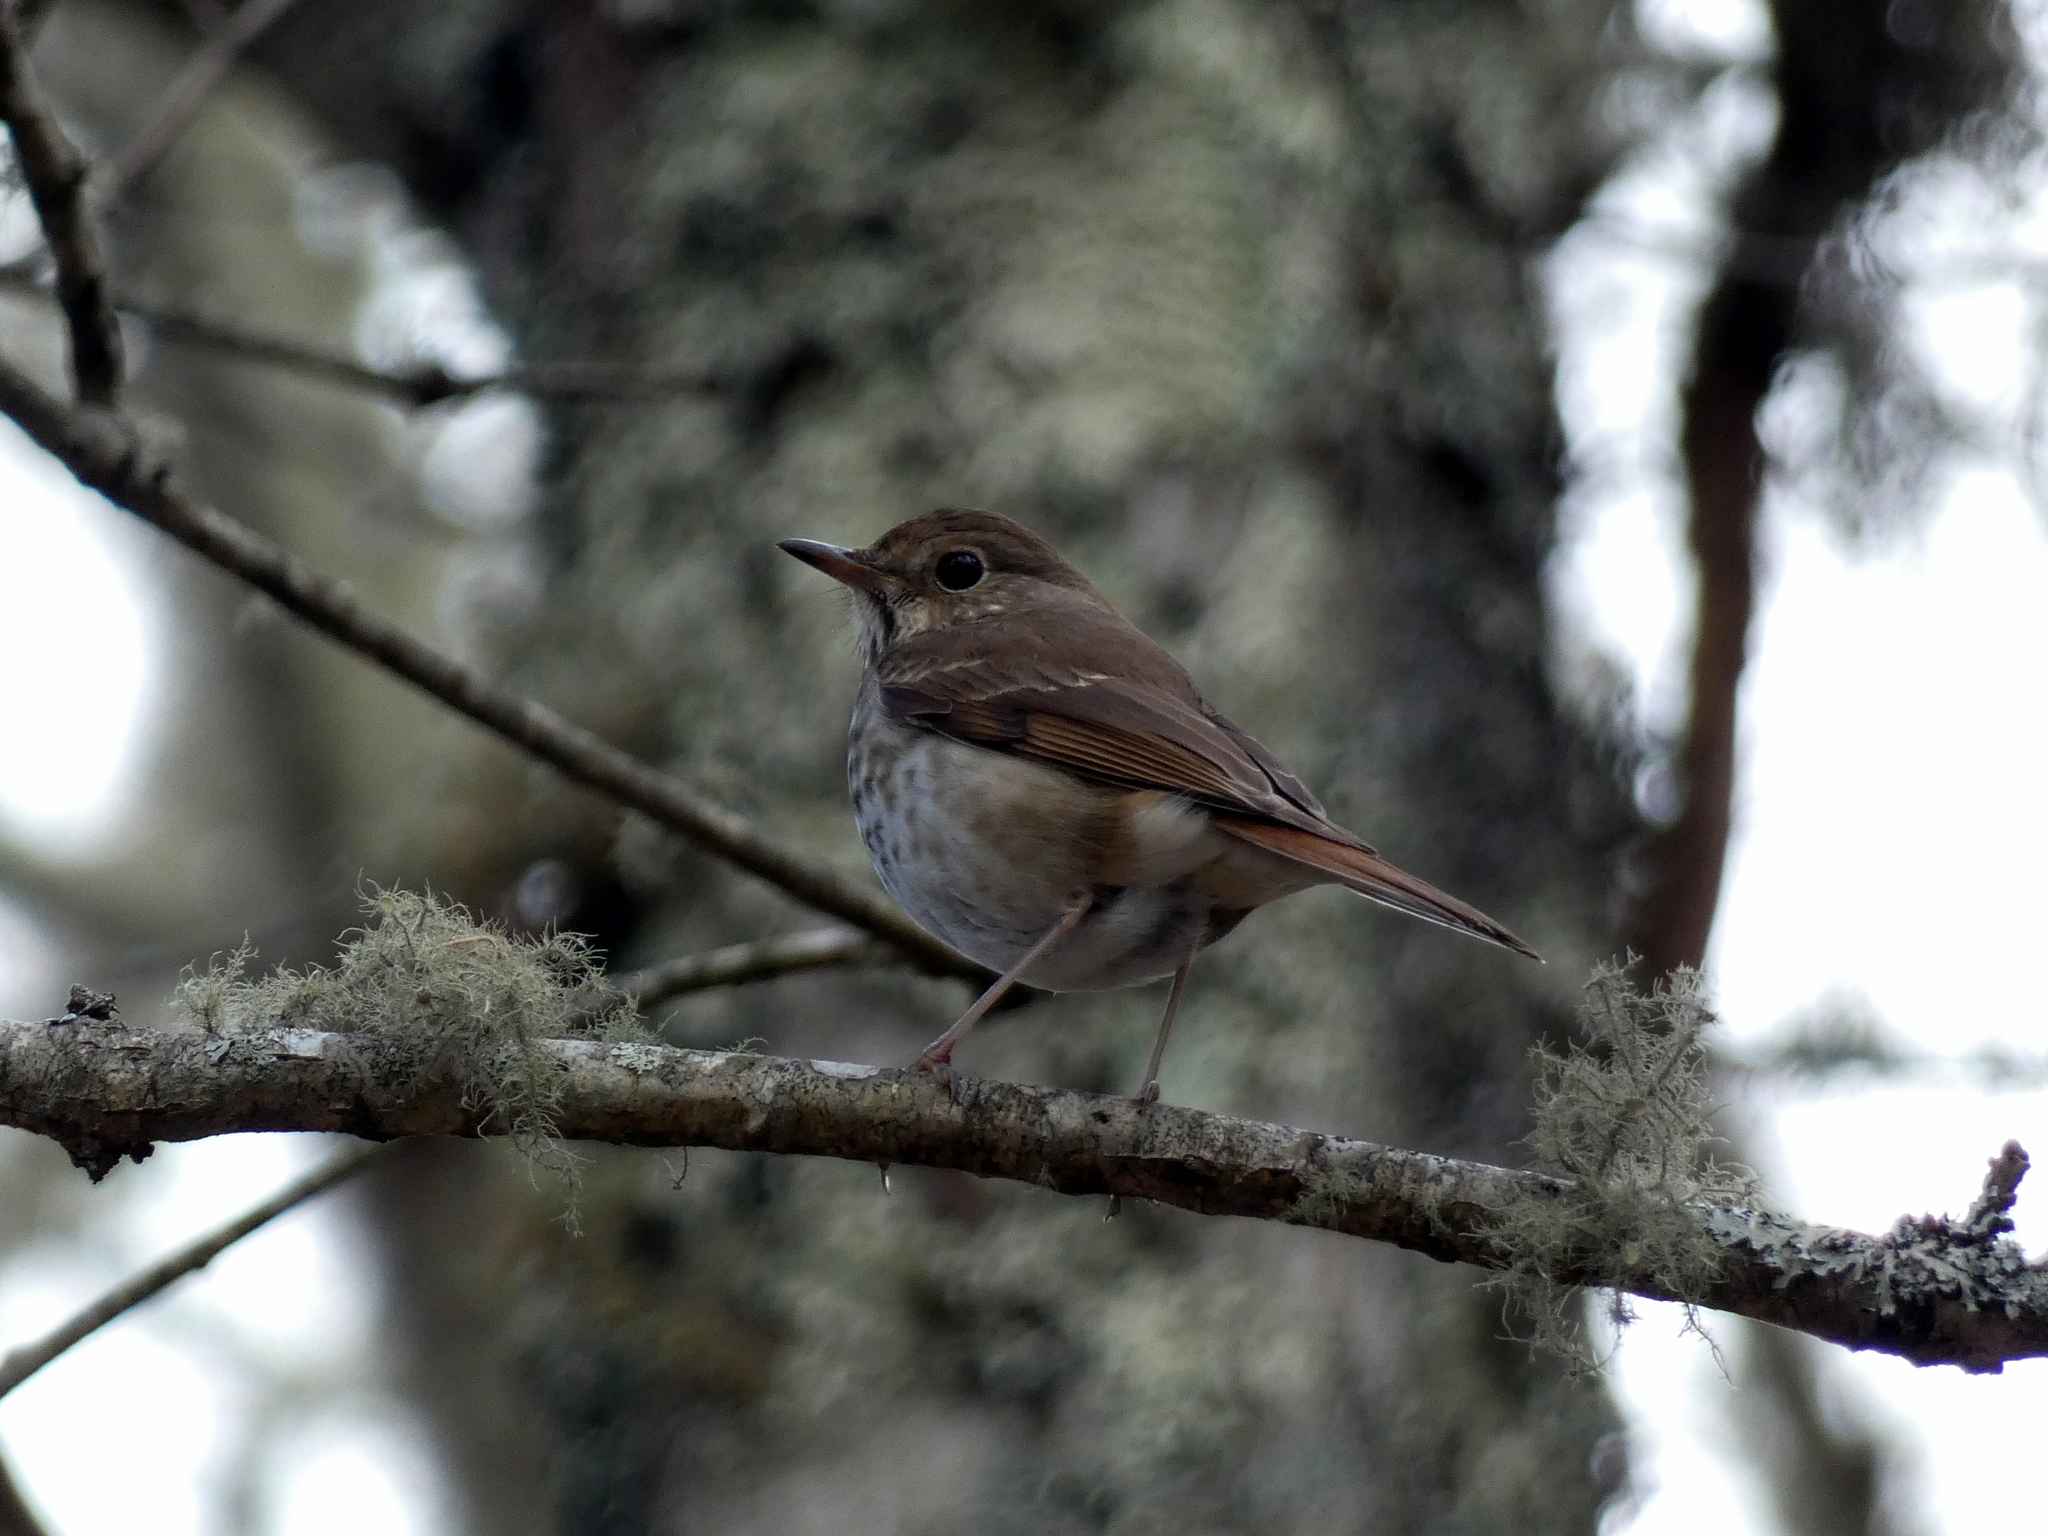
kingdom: Animalia
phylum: Chordata
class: Aves
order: Passeriformes
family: Turdidae
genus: Catharus
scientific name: Catharus guttatus
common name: Hermit thrush
